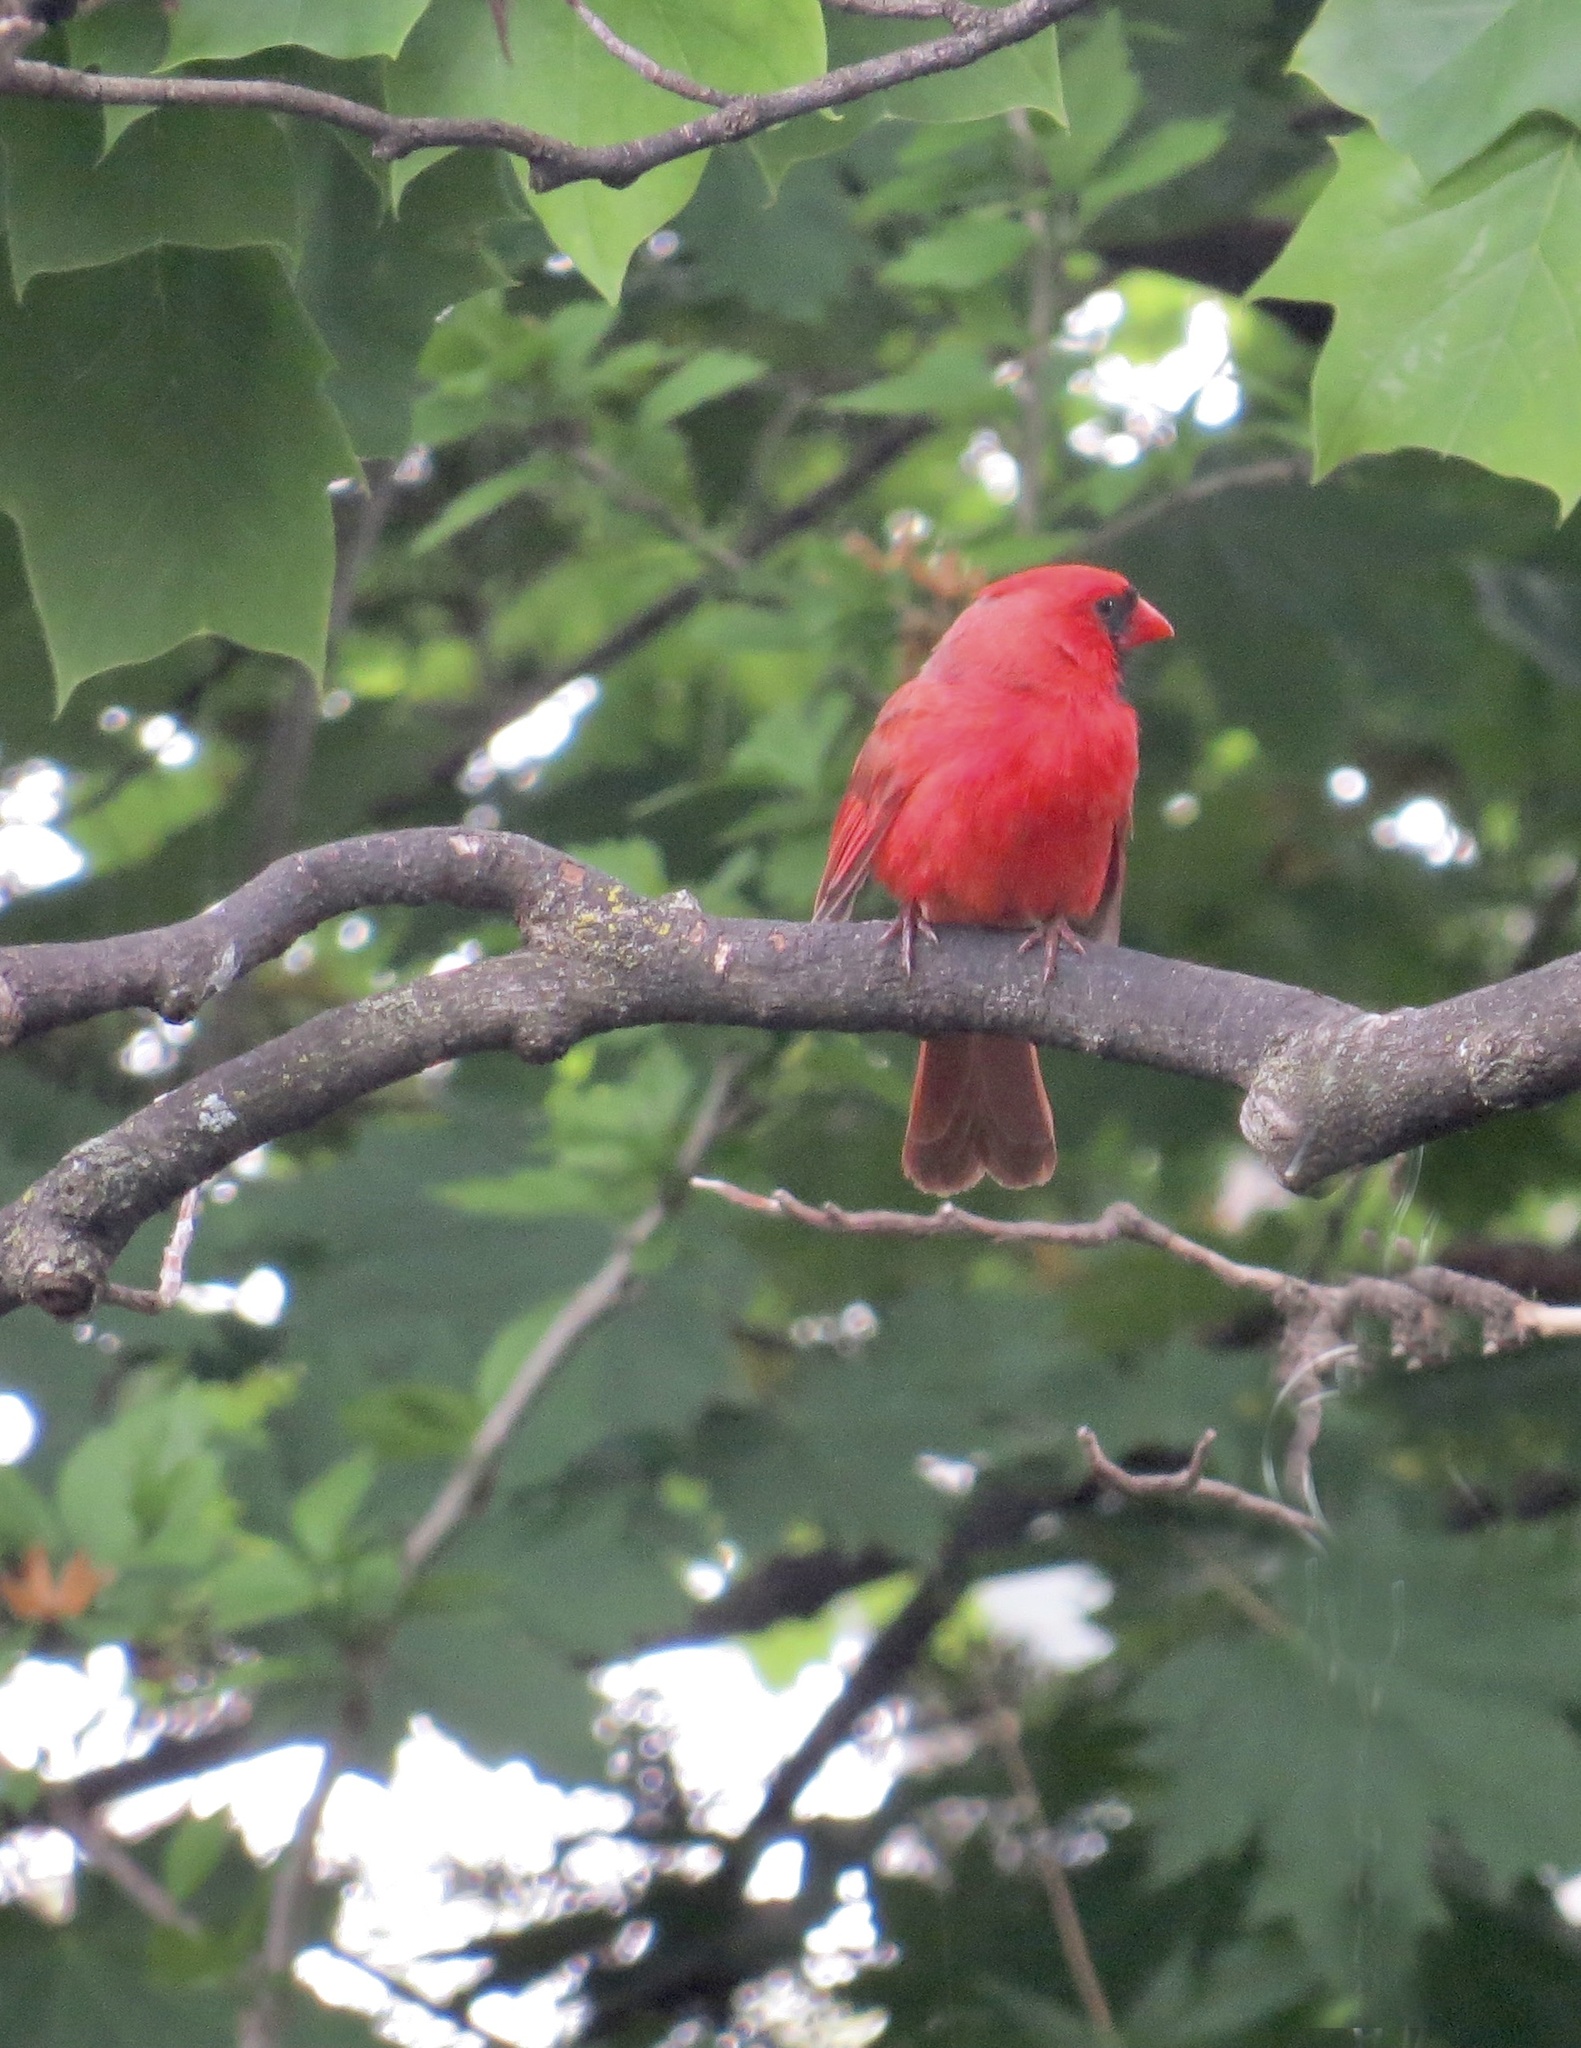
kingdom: Animalia
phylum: Chordata
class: Aves
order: Passeriformes
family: Cardinalidae
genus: Cardinalis
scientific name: Cardinalis cardinalis
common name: Northern cardinal
